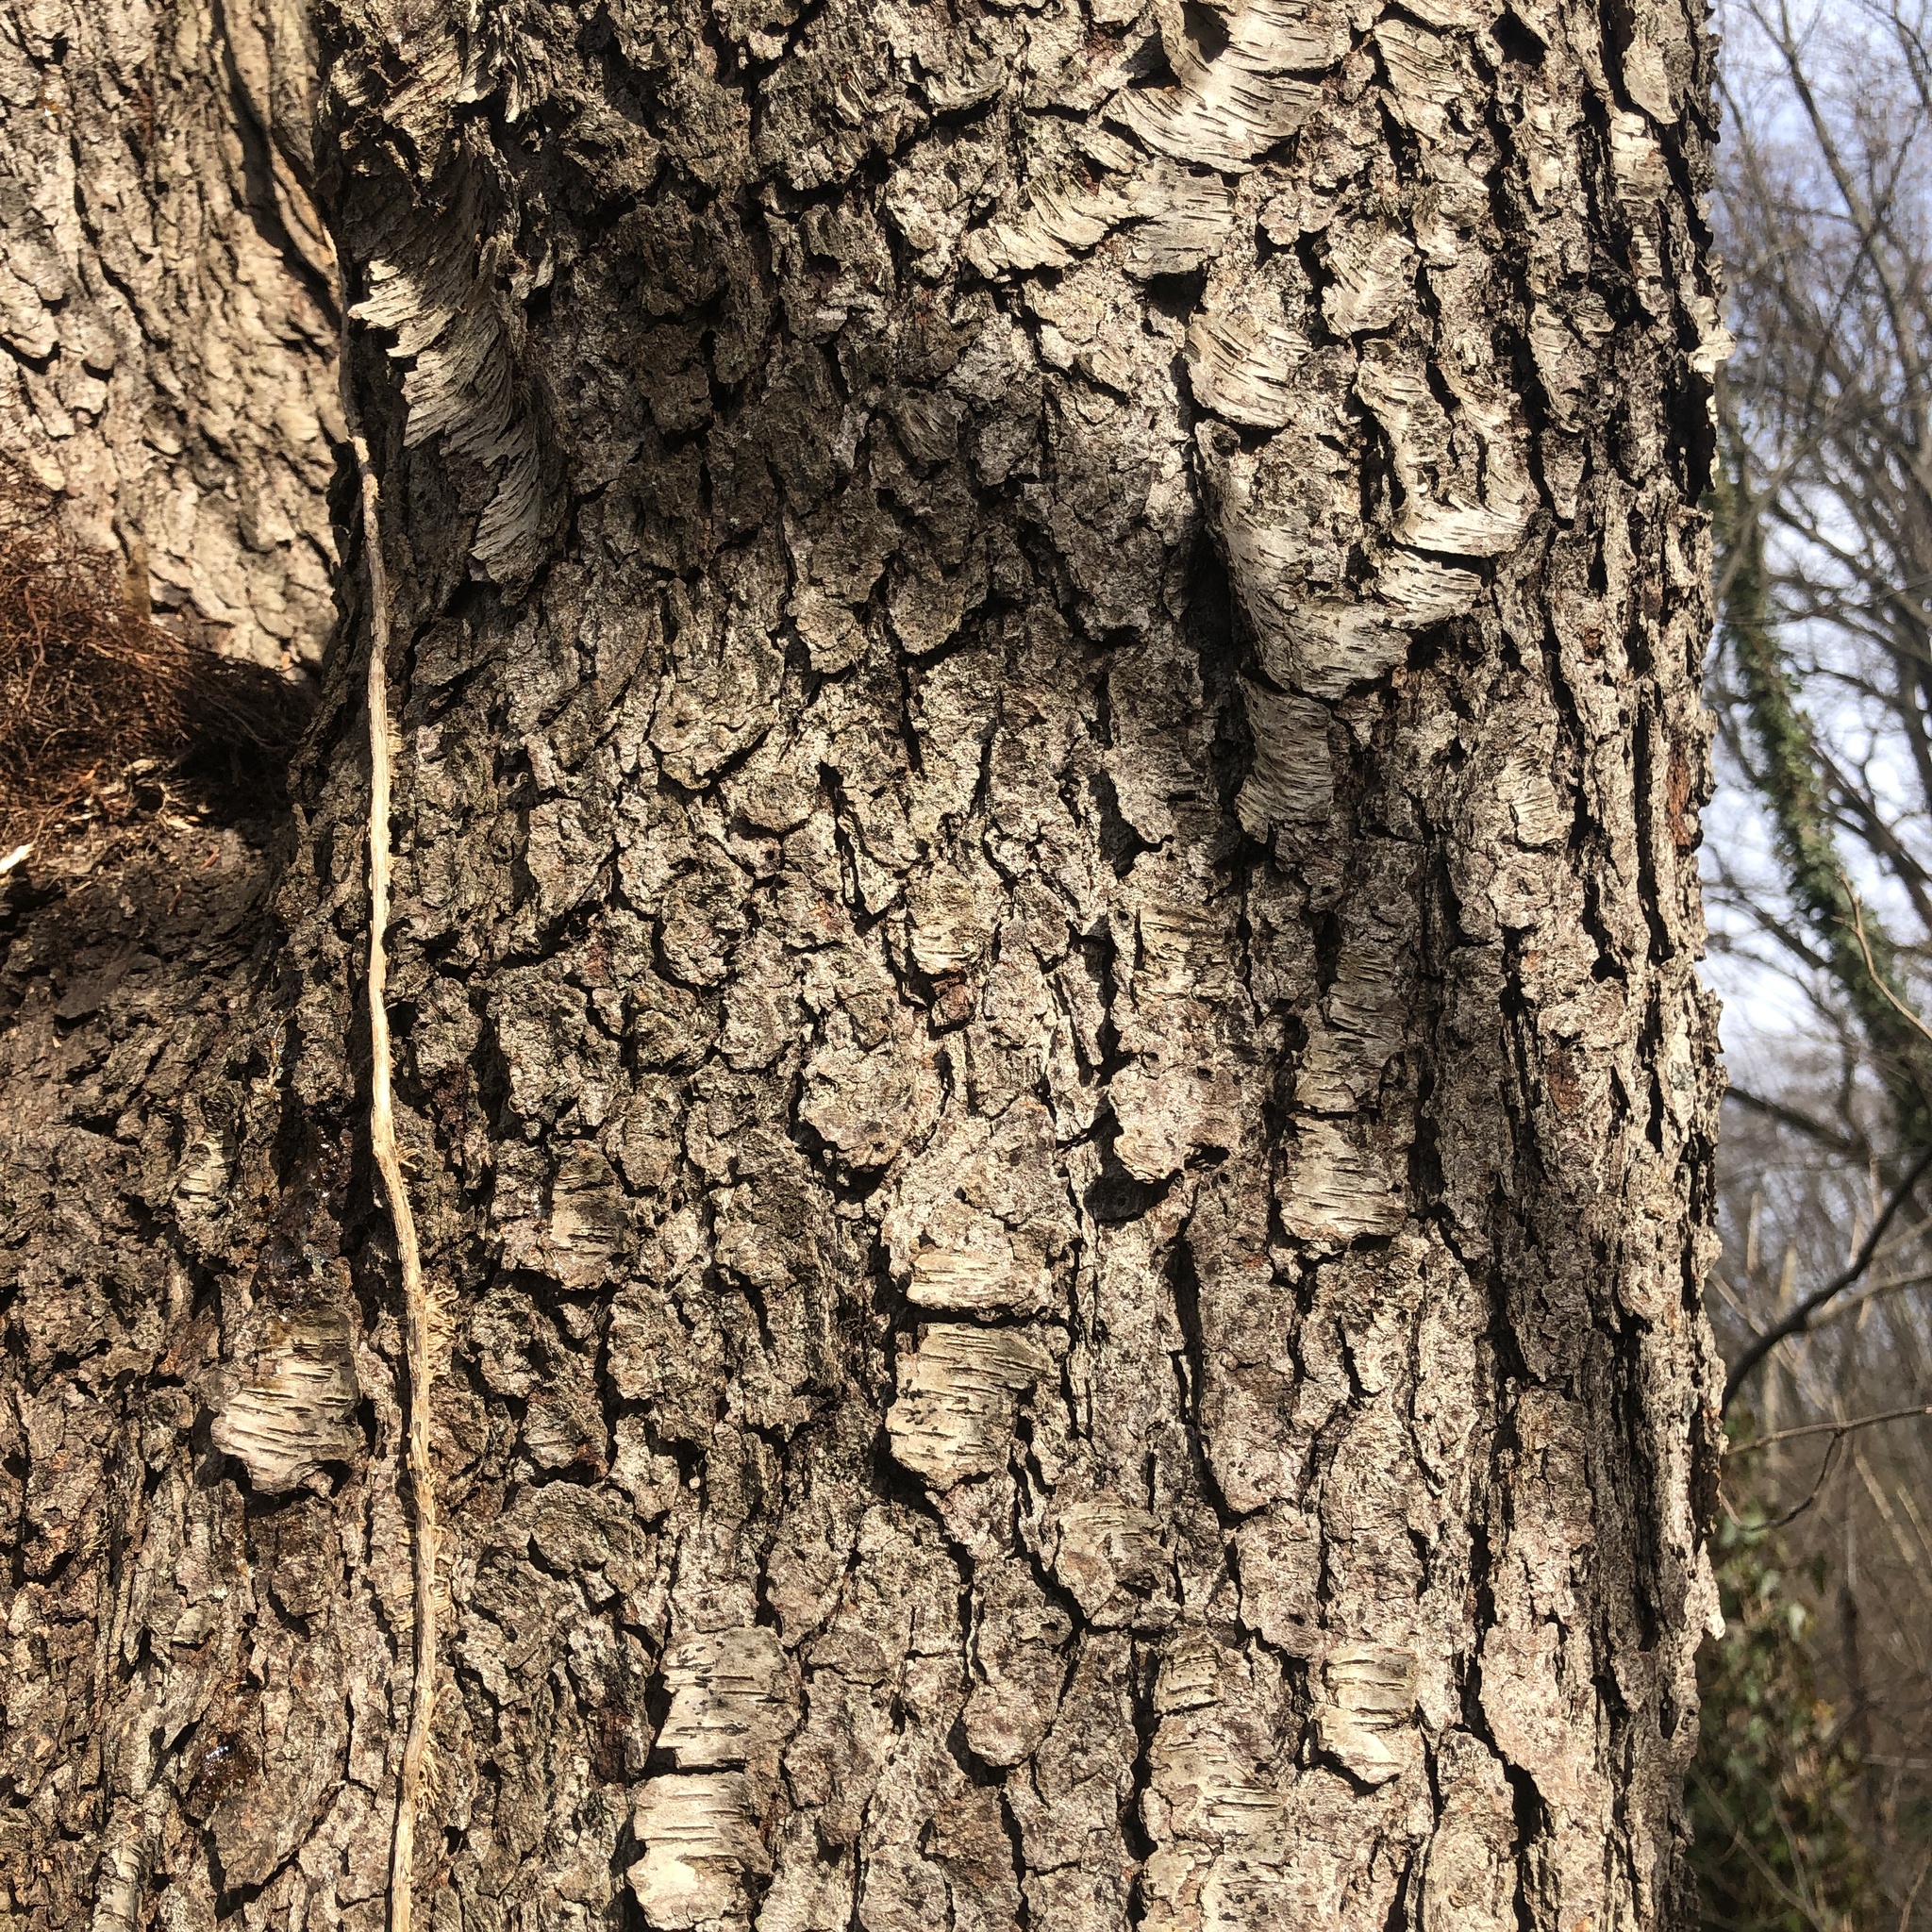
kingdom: Plantae
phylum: Tracheophyta
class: Magnoliopsida
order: Rosales
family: Rosaceae
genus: Prunus
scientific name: Prunus serotina
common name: Black cherry
